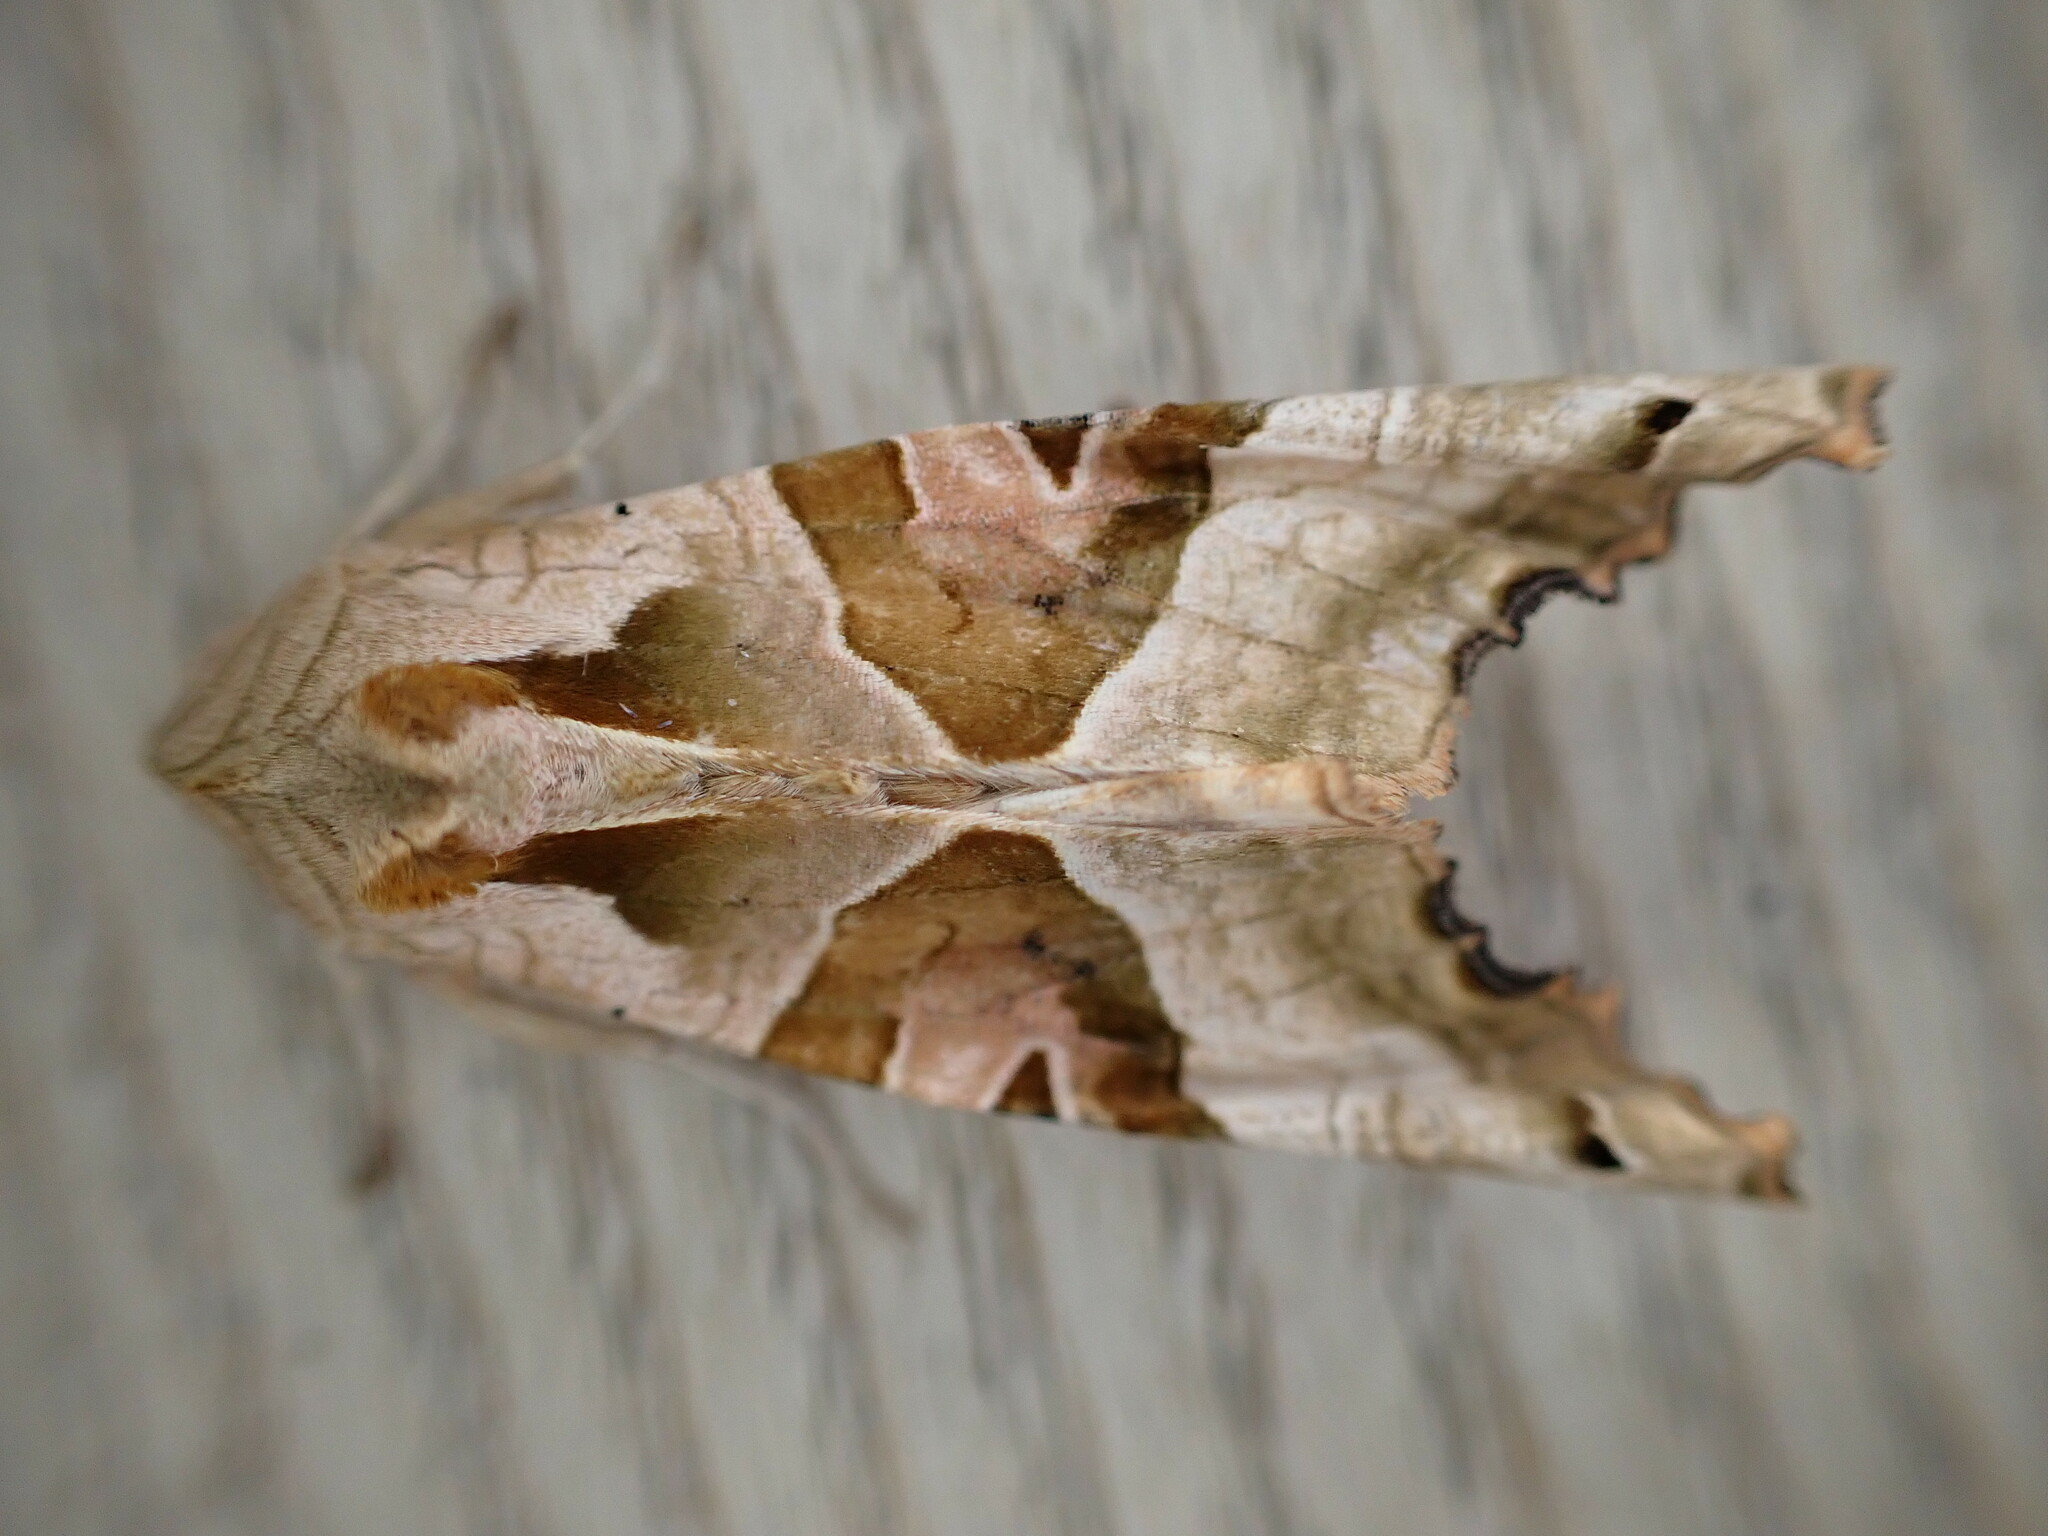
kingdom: Animalia
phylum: Arthropoda
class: Insecta
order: Lepidoptera
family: Noctuidae
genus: Phlogophora
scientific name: Phlogophora meticulosa
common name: Angle shades
